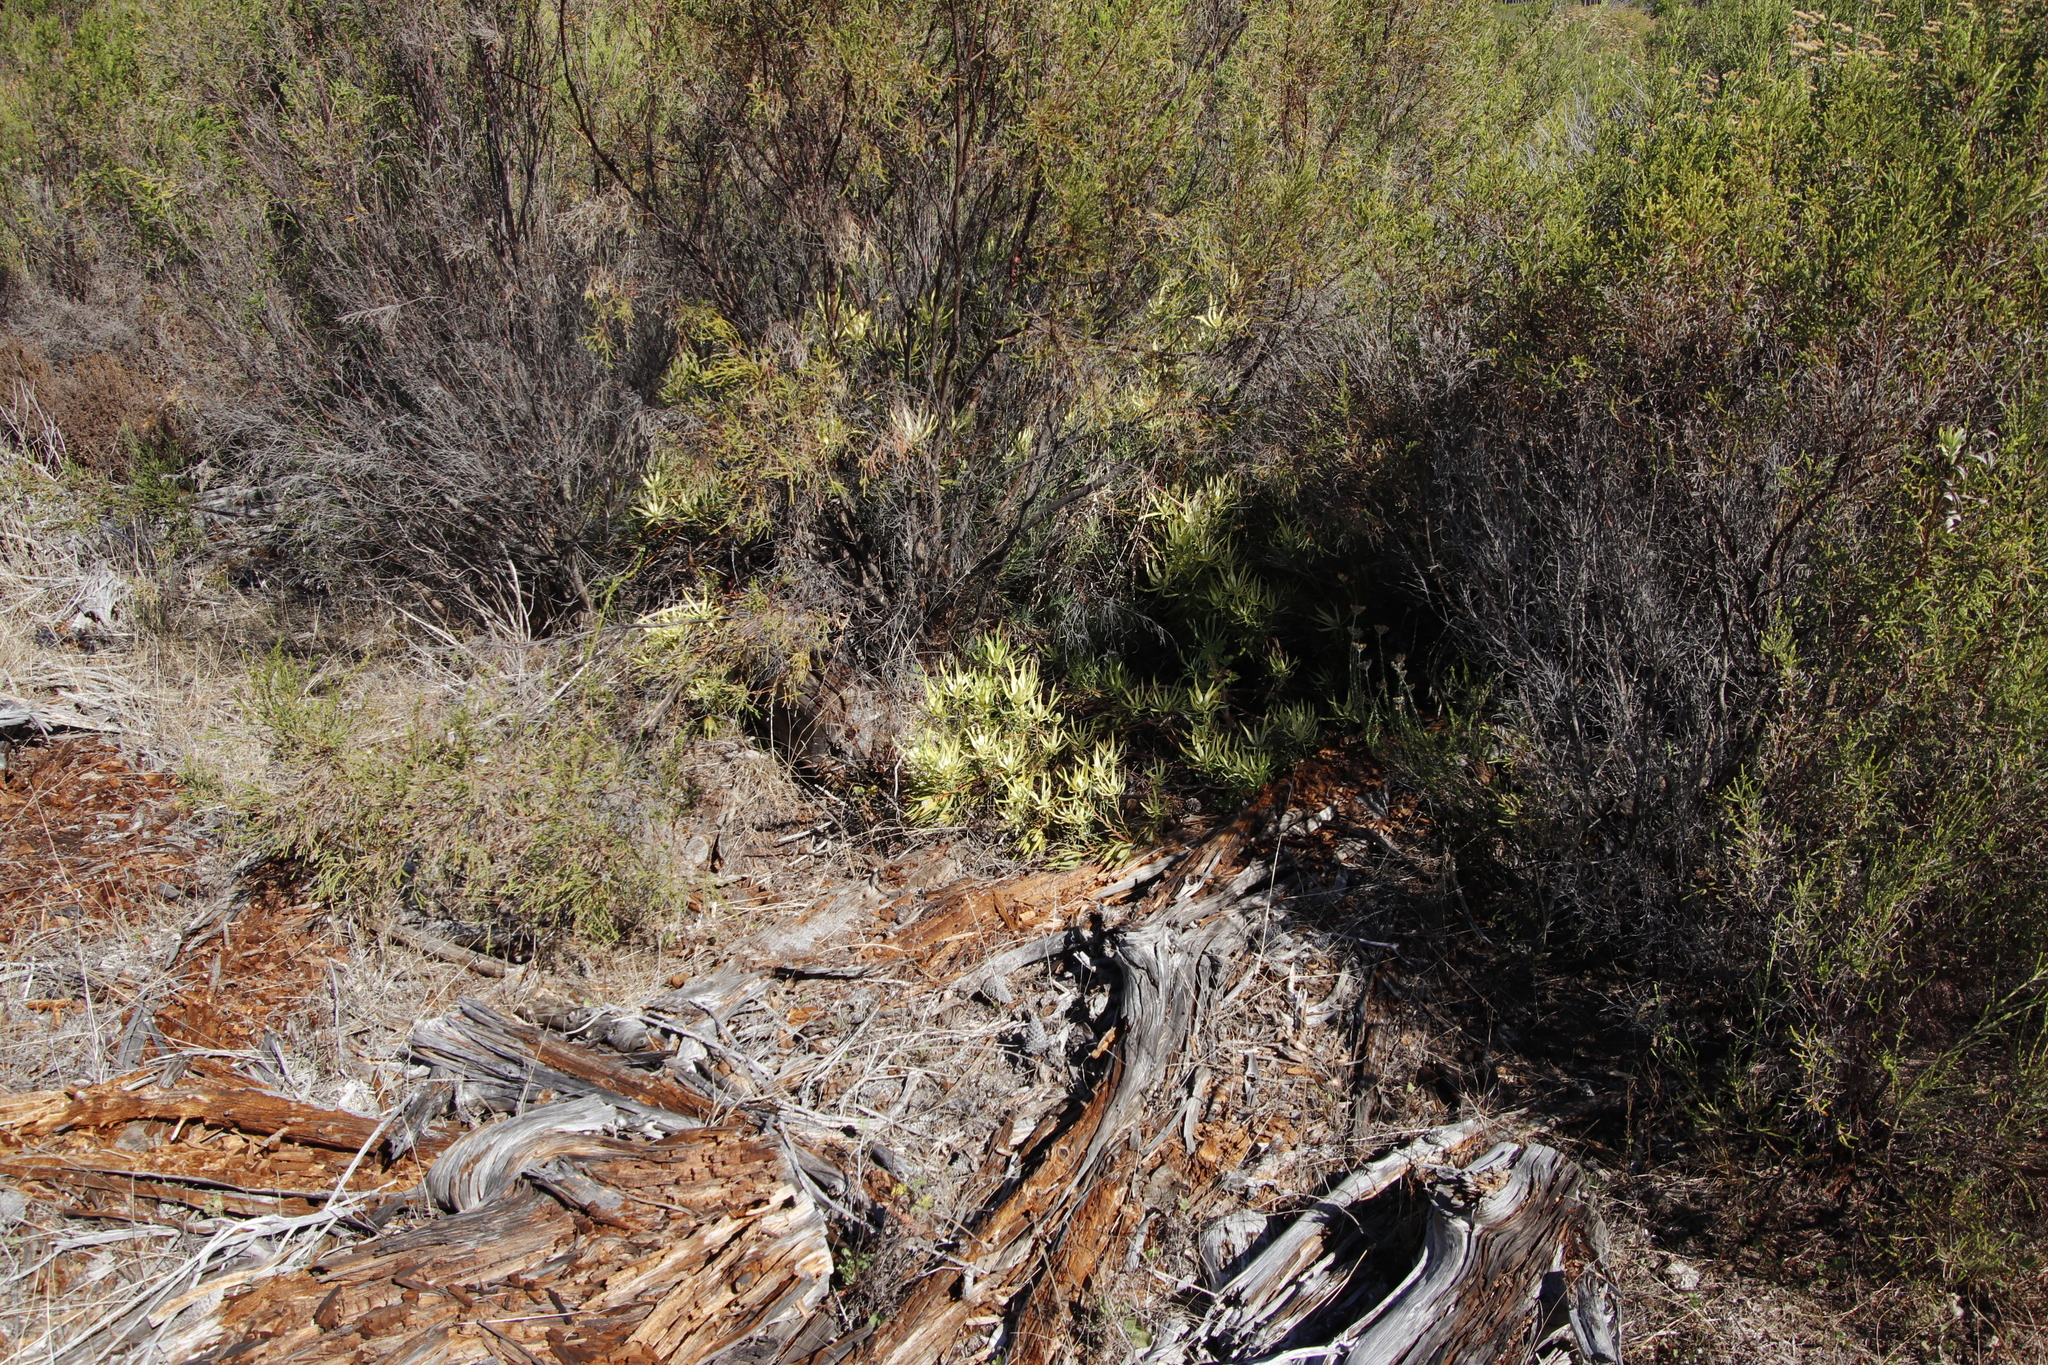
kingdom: Plantae
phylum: Tracheophyta
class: Magnoliopsida
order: Proteales
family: Proteaceae
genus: Leucadendron
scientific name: Leucadendron salignum
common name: Common sunshine conebush
